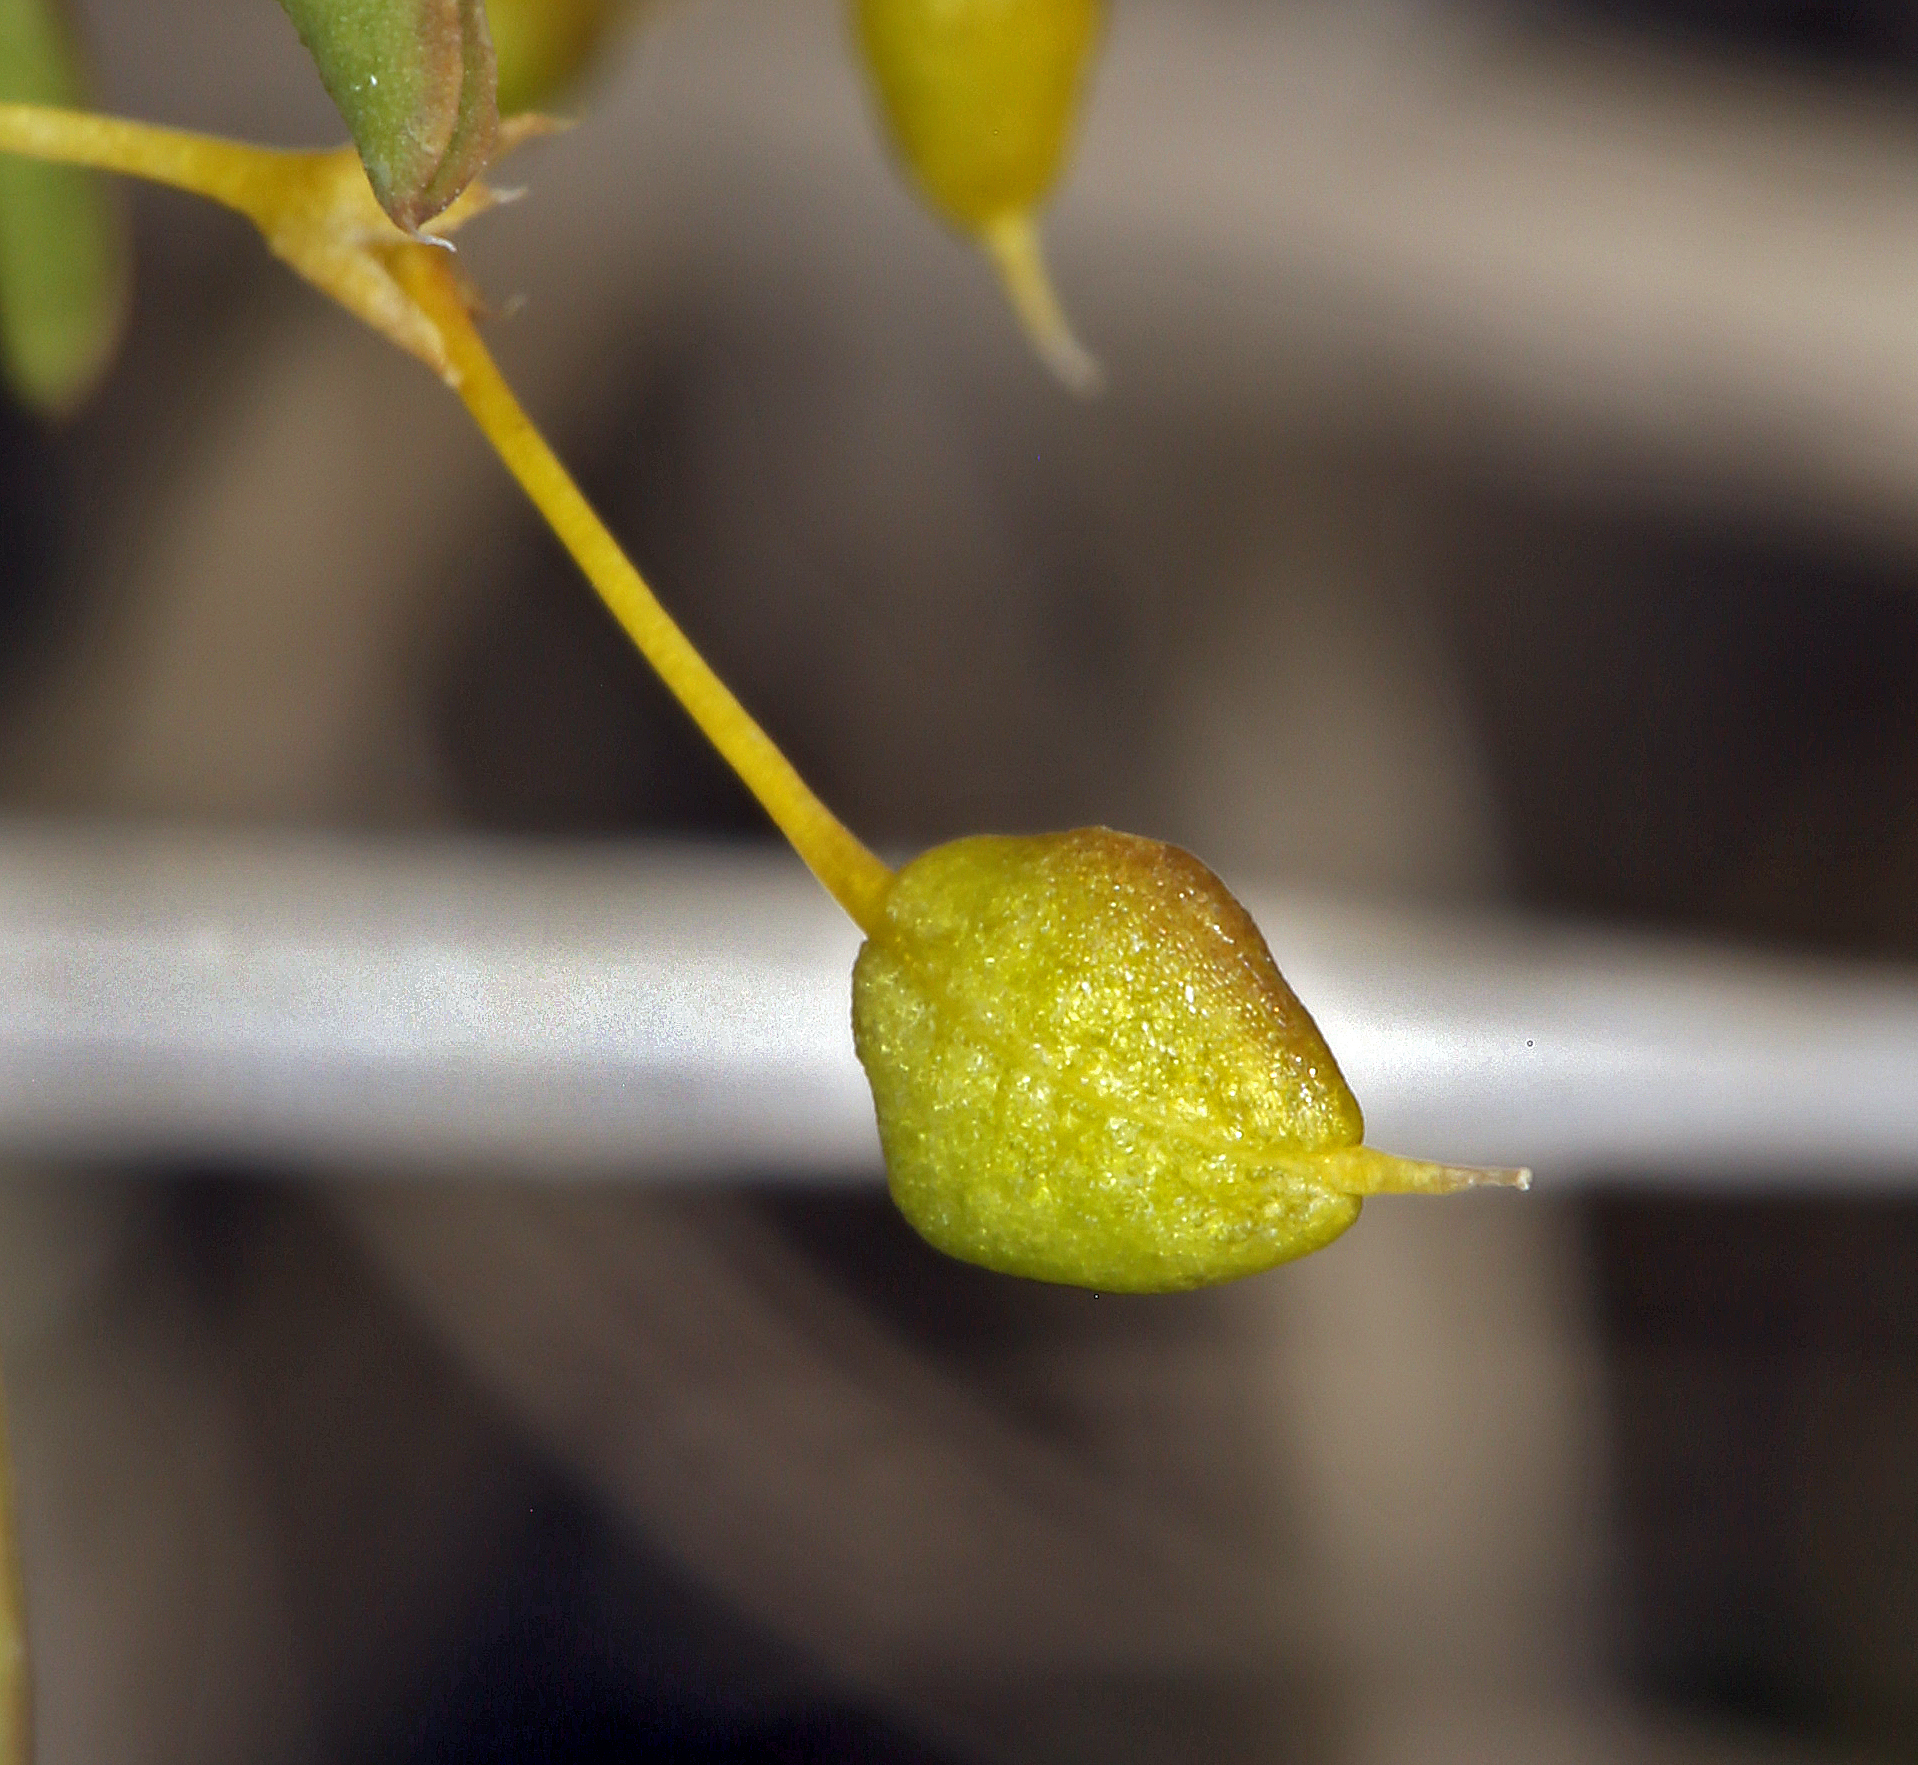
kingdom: Plantae
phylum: Tracheophyta
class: Magnoliopsida
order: Brassicales
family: Cleomaceae
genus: Cleomella
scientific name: Cleomella plocasperma
